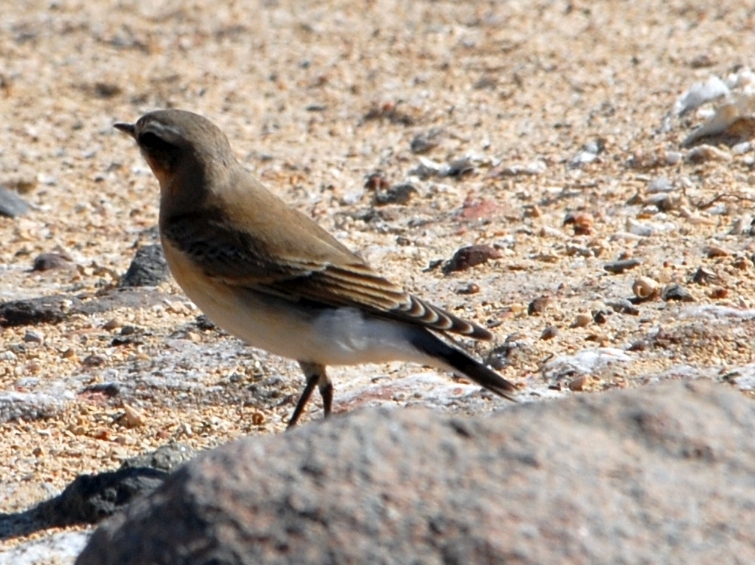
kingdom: Animalia
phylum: Chordata
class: Aves
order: Passeriformes
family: Muscicapidae
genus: Oenanthe
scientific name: Oenanthe oenanthe
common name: Northern wheatear
